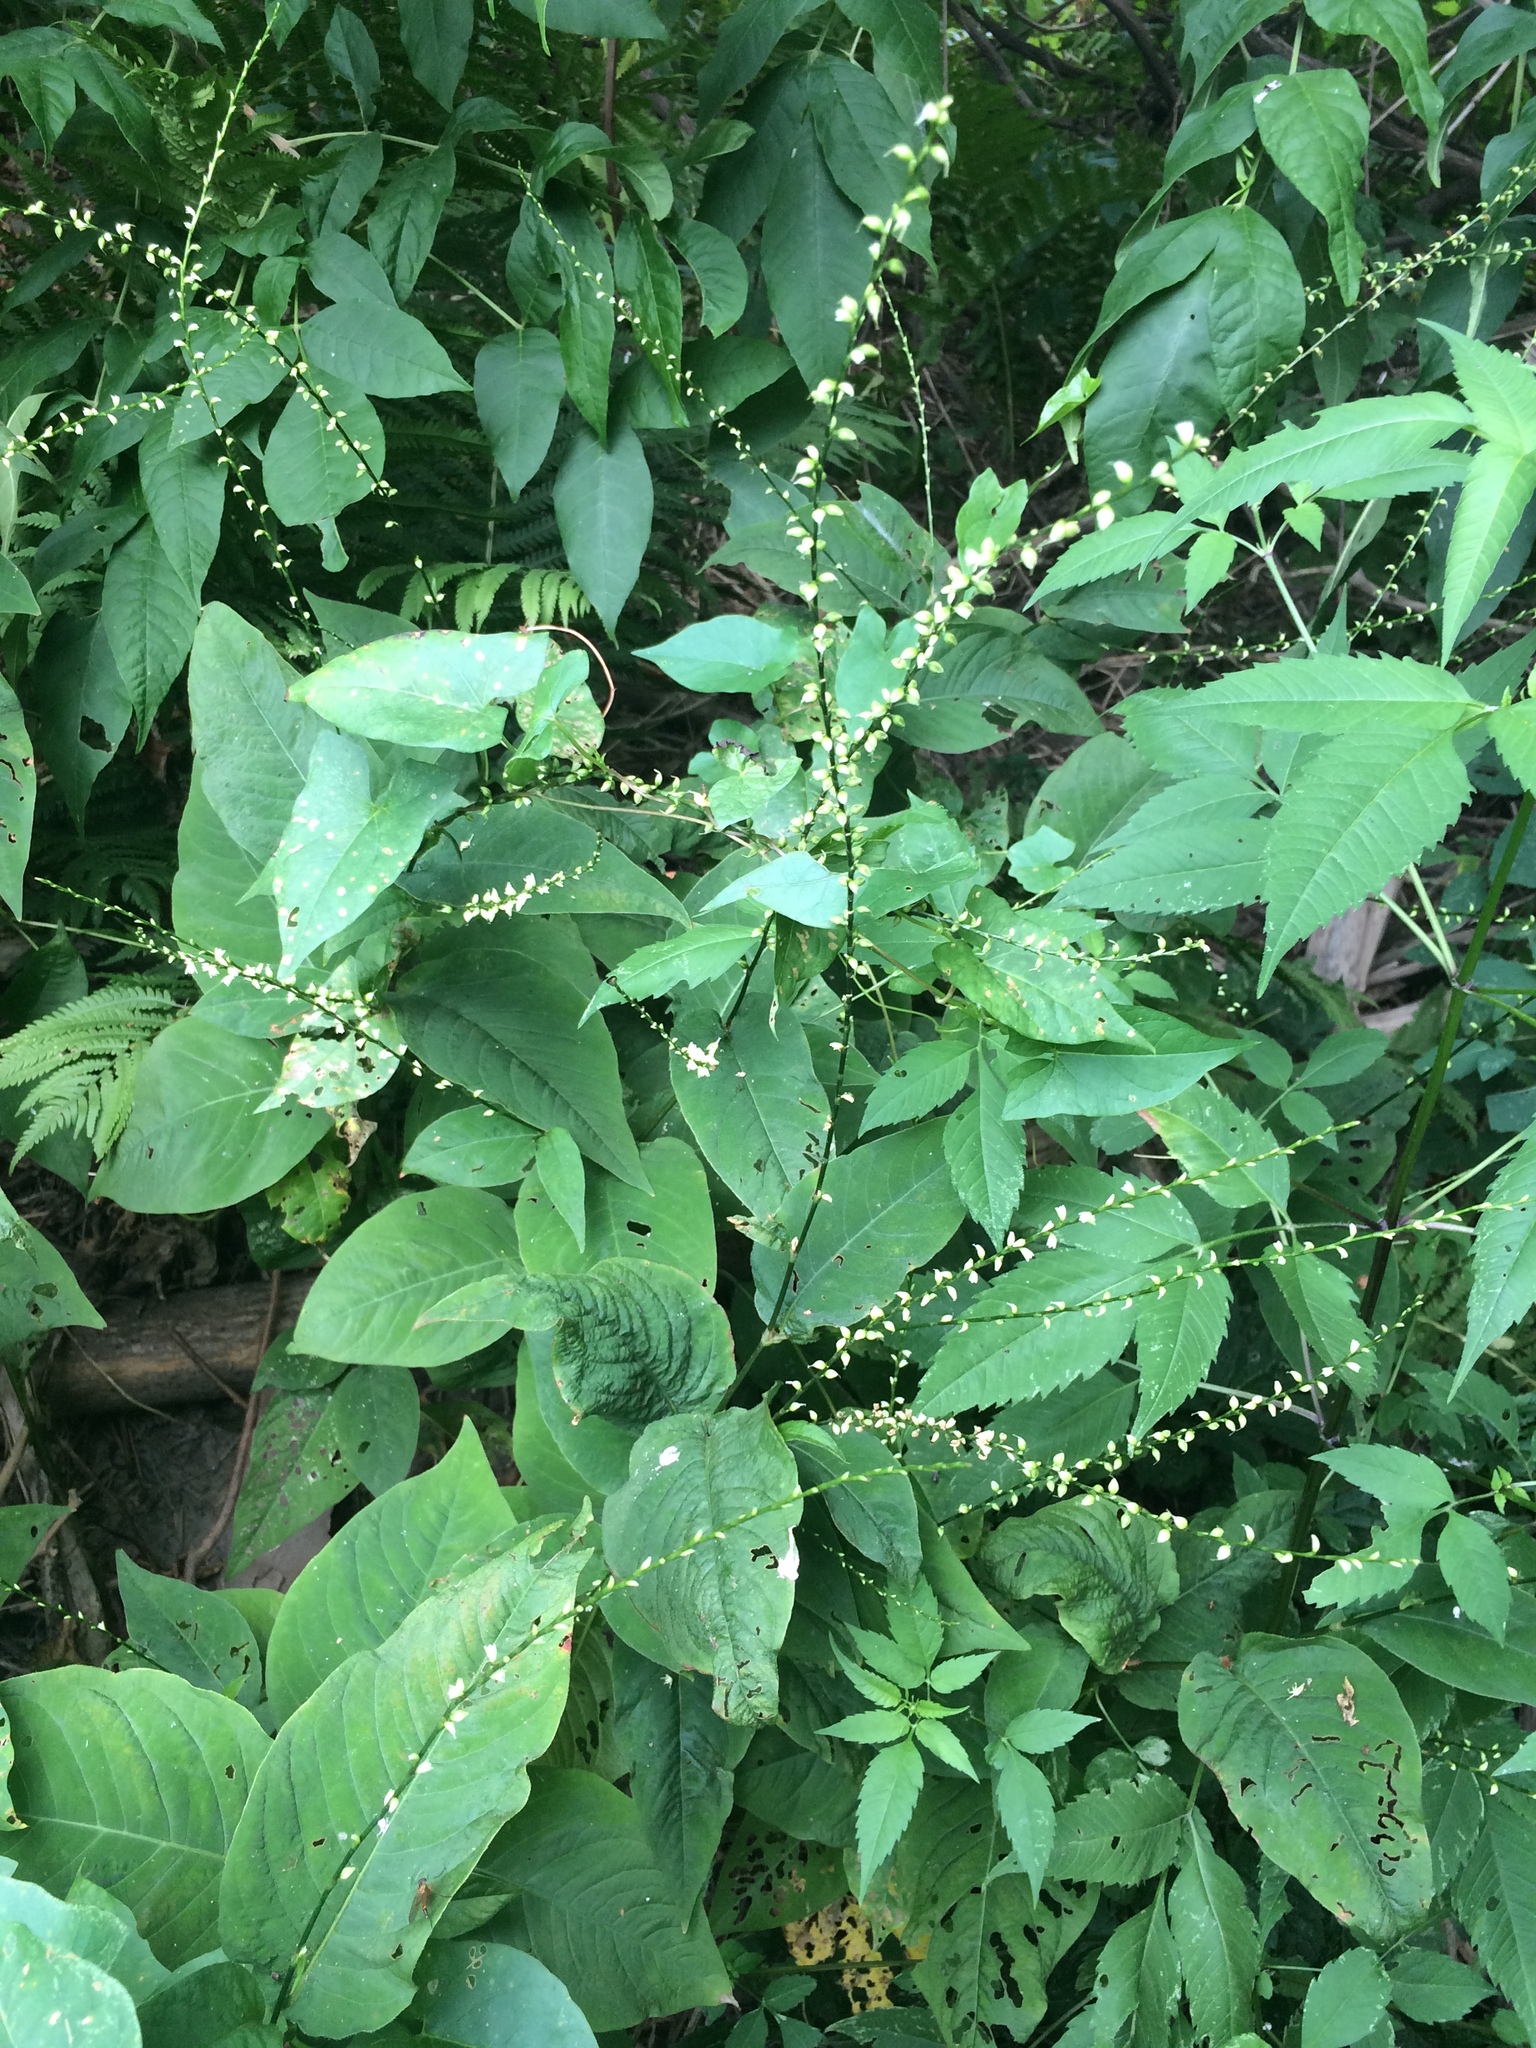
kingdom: Plantae
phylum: Tracheophyta
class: Magnoliopsida
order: Caryophyllales
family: Polygonaceae
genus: Persicaria
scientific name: Persicaria virginiana
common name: Jumpseed
